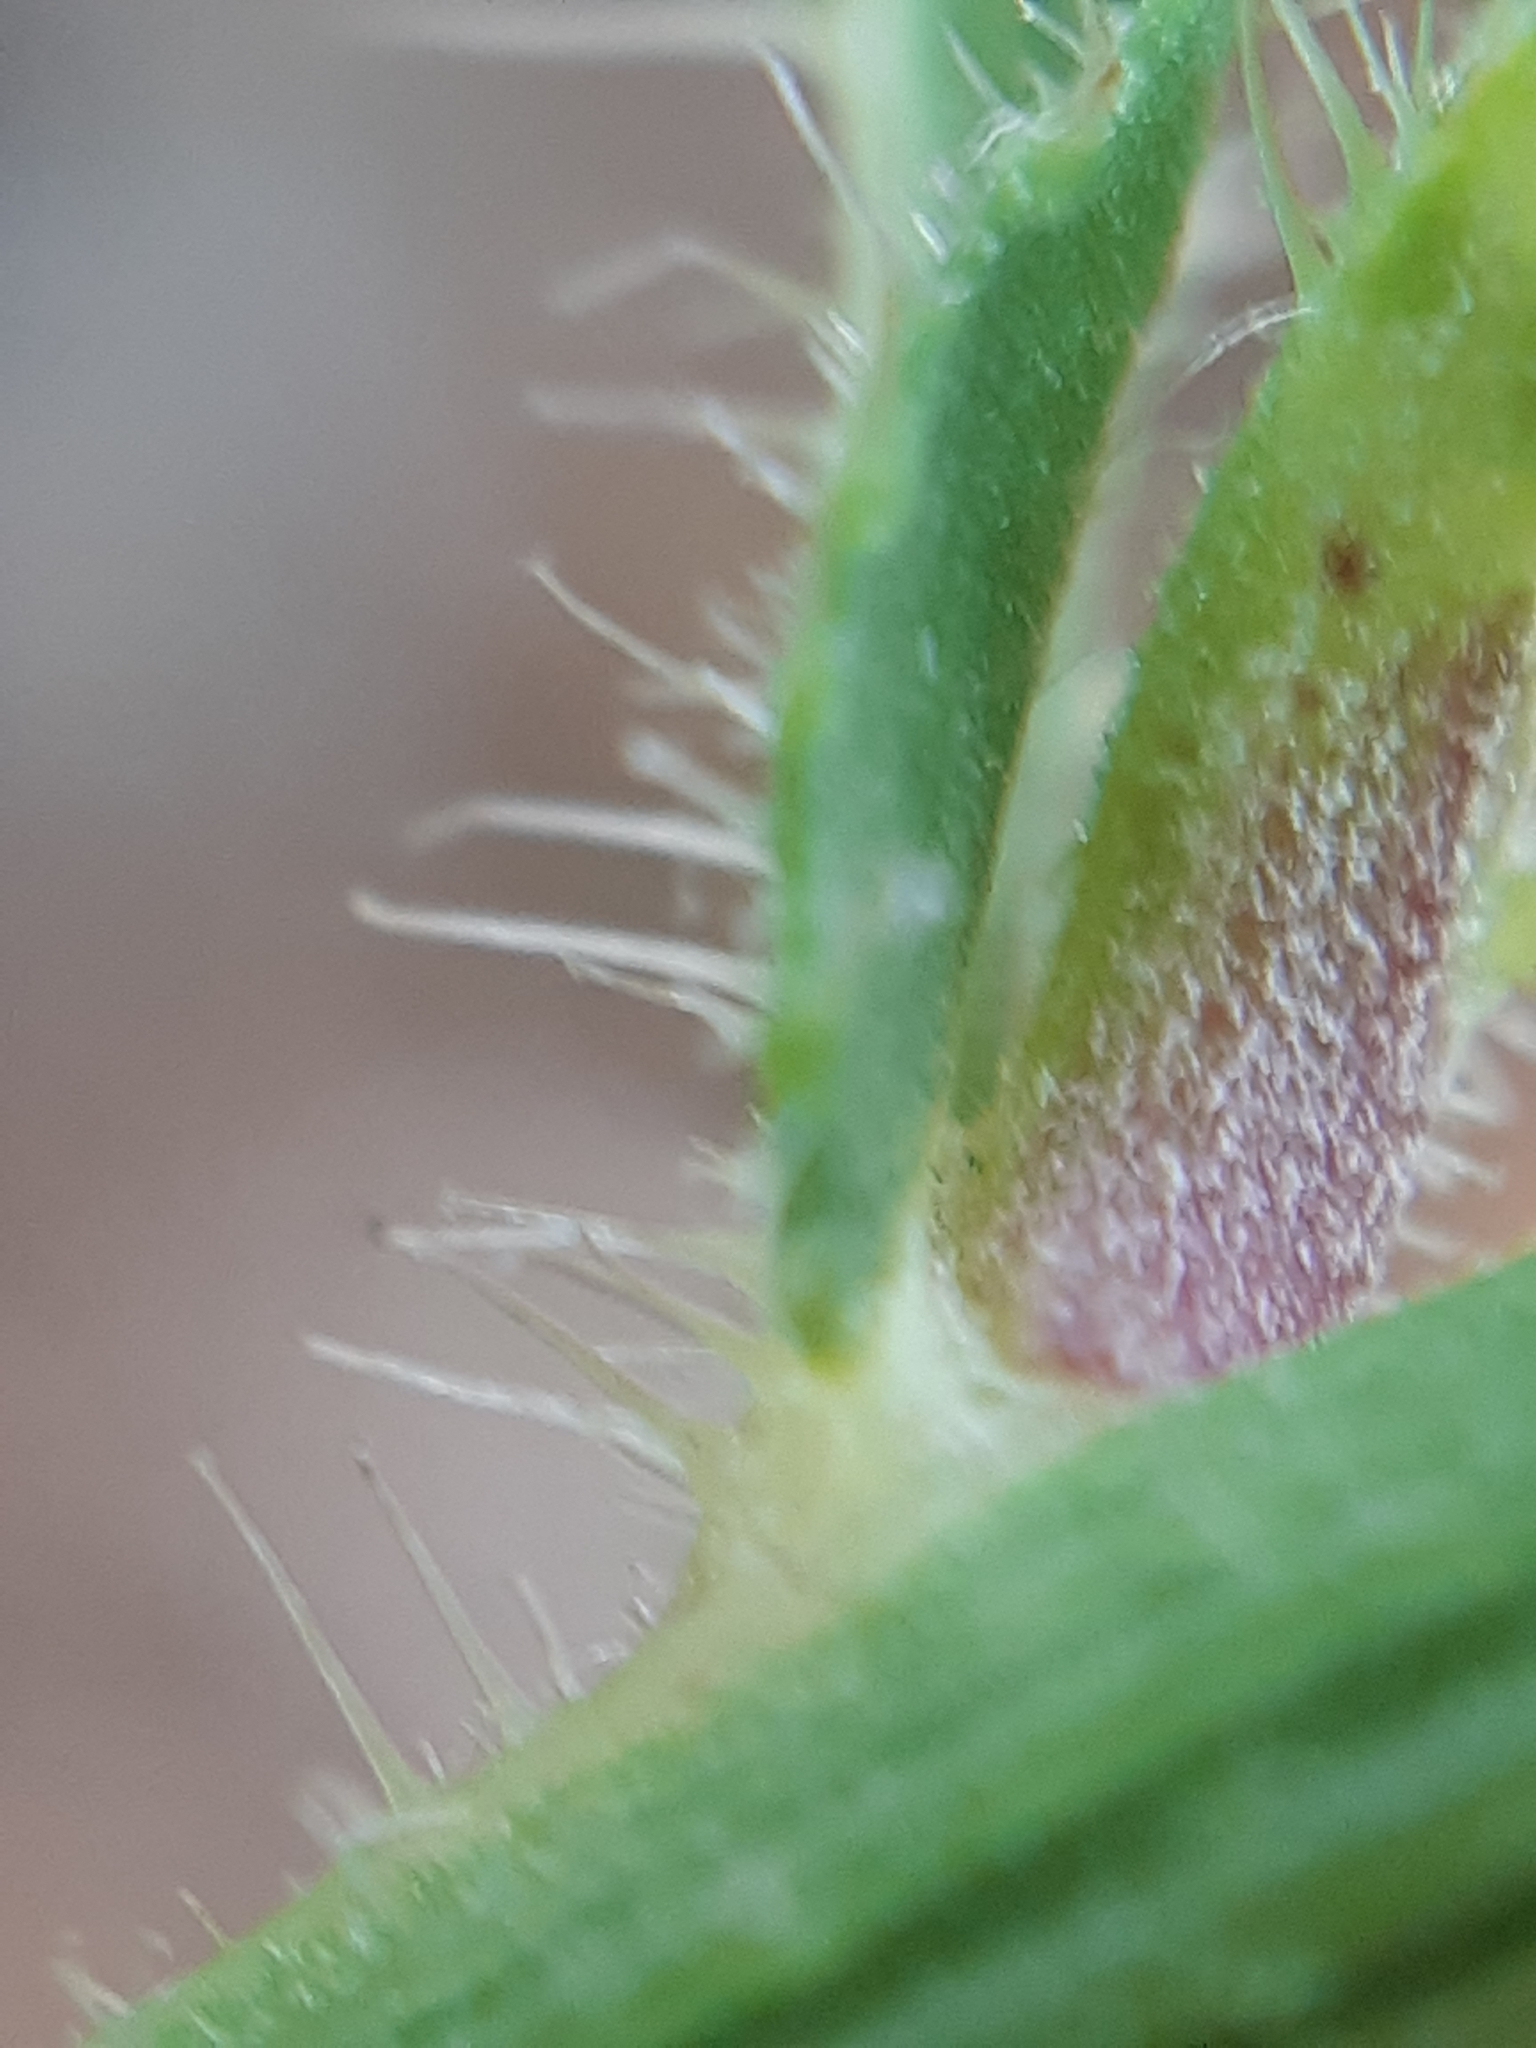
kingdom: Plantae
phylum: Tracheophyta
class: Magnoliopsida
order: Asterales
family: Asteraceae
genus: Picris
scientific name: Picris hieracioides
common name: Hawkweed oxtongue
